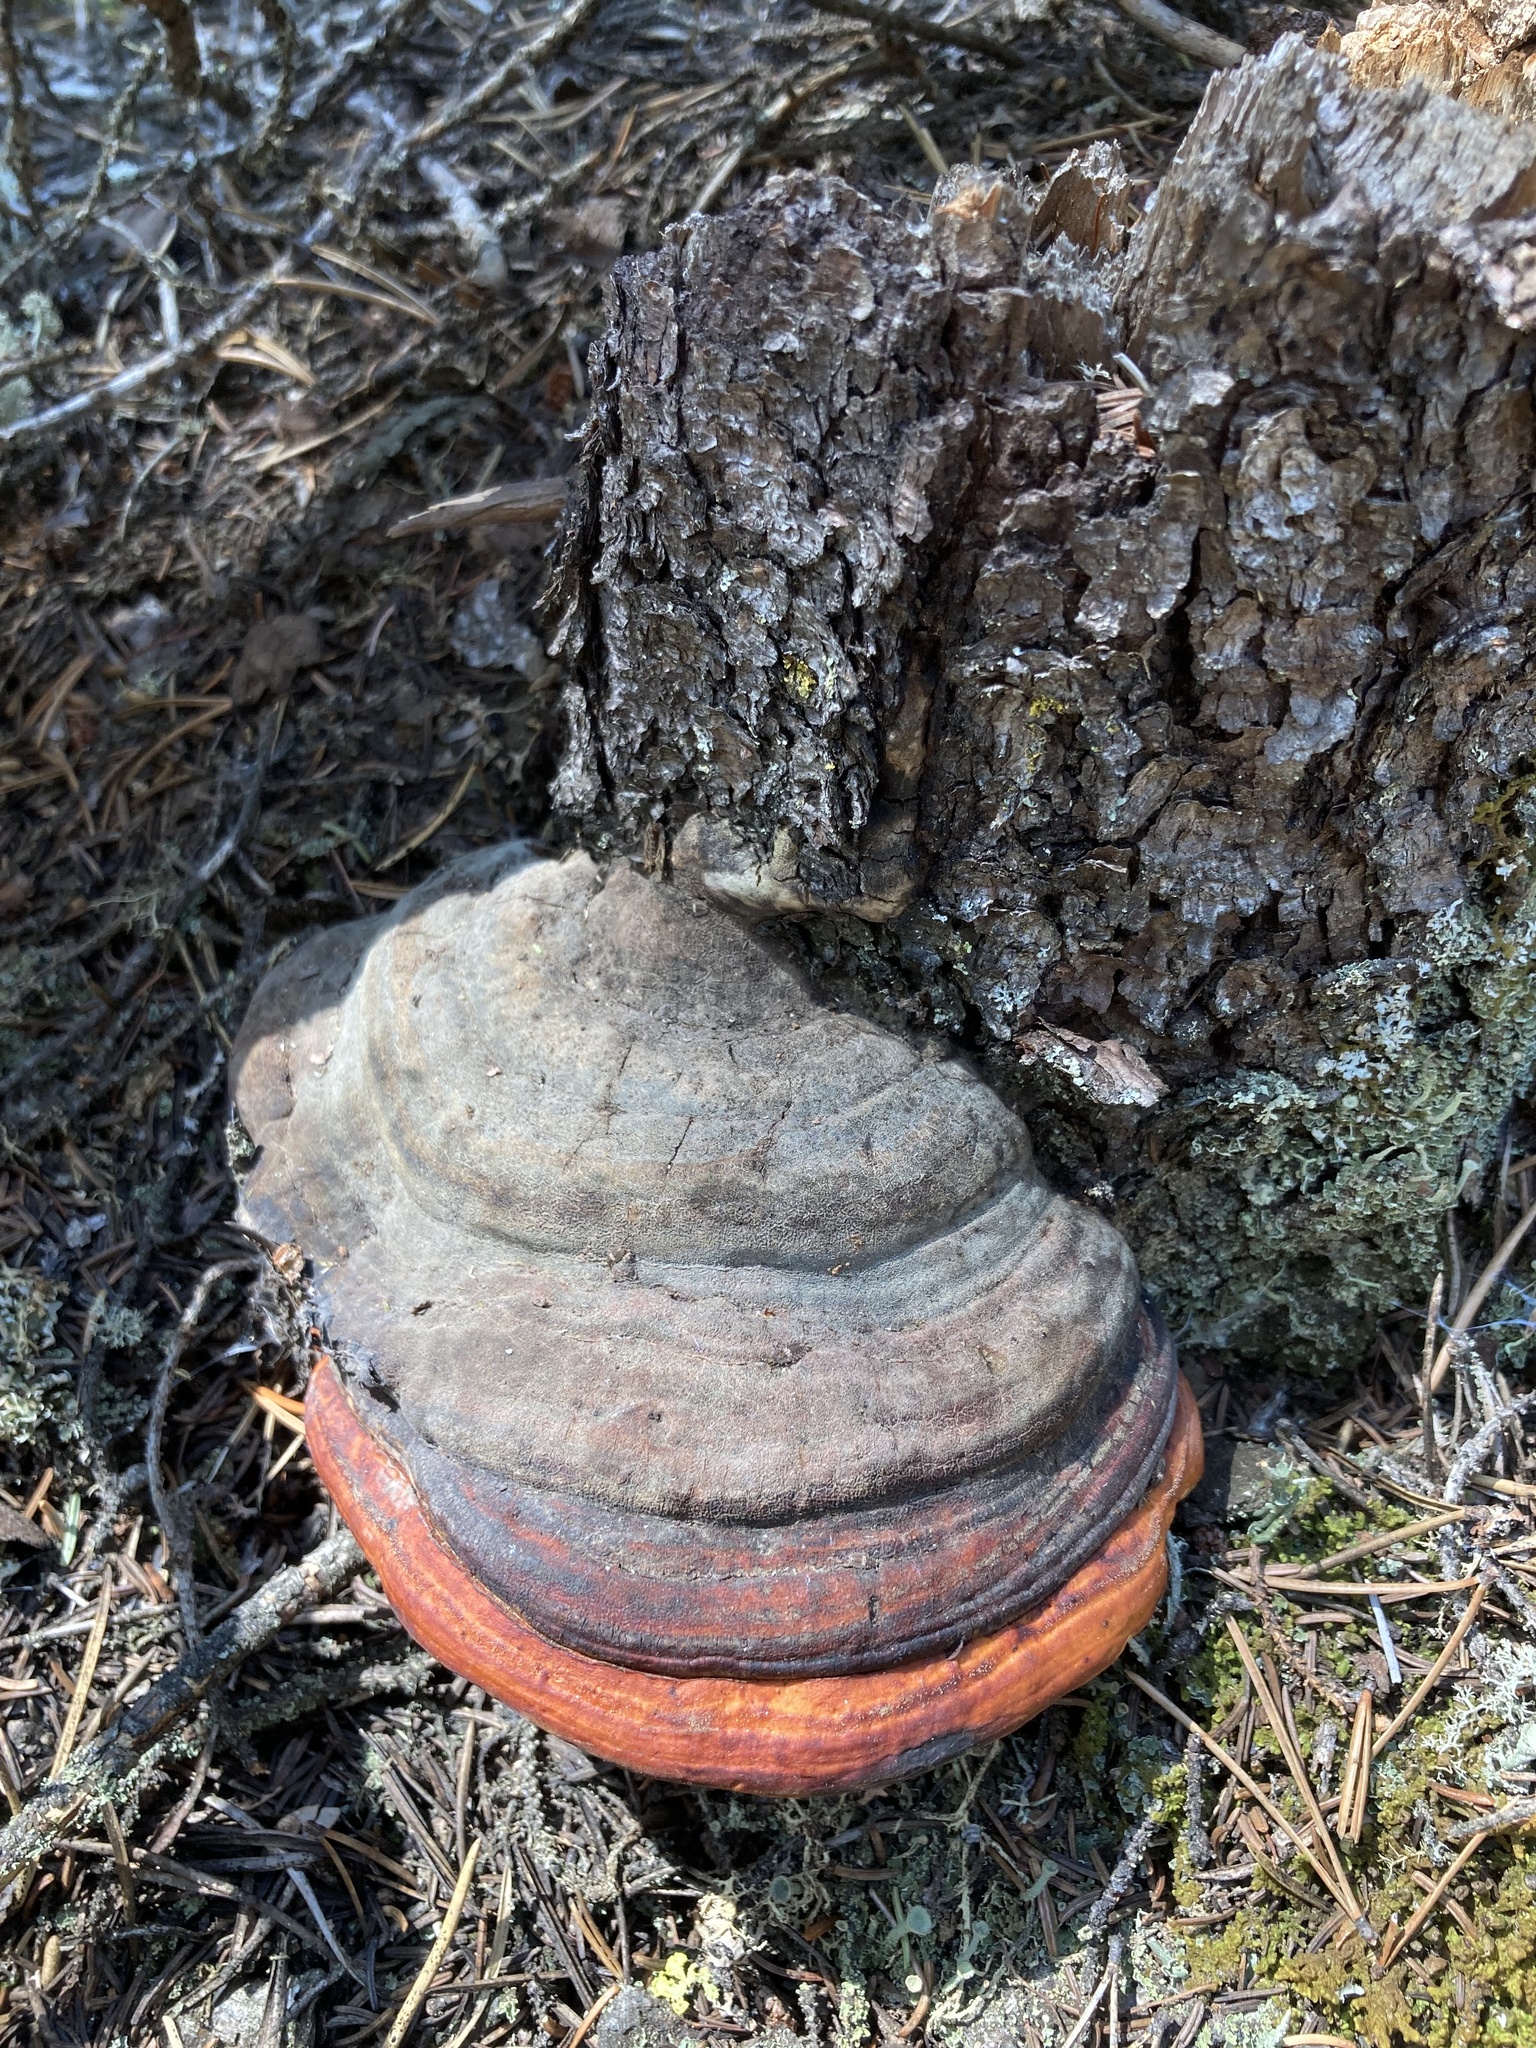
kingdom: Fungi
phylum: Basidiomycota
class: Agaricomycetes
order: Polyporales
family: Fomitopsidaceae
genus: Fomitopsis
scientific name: Fomitopsis mounceae
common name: Northern red belt
